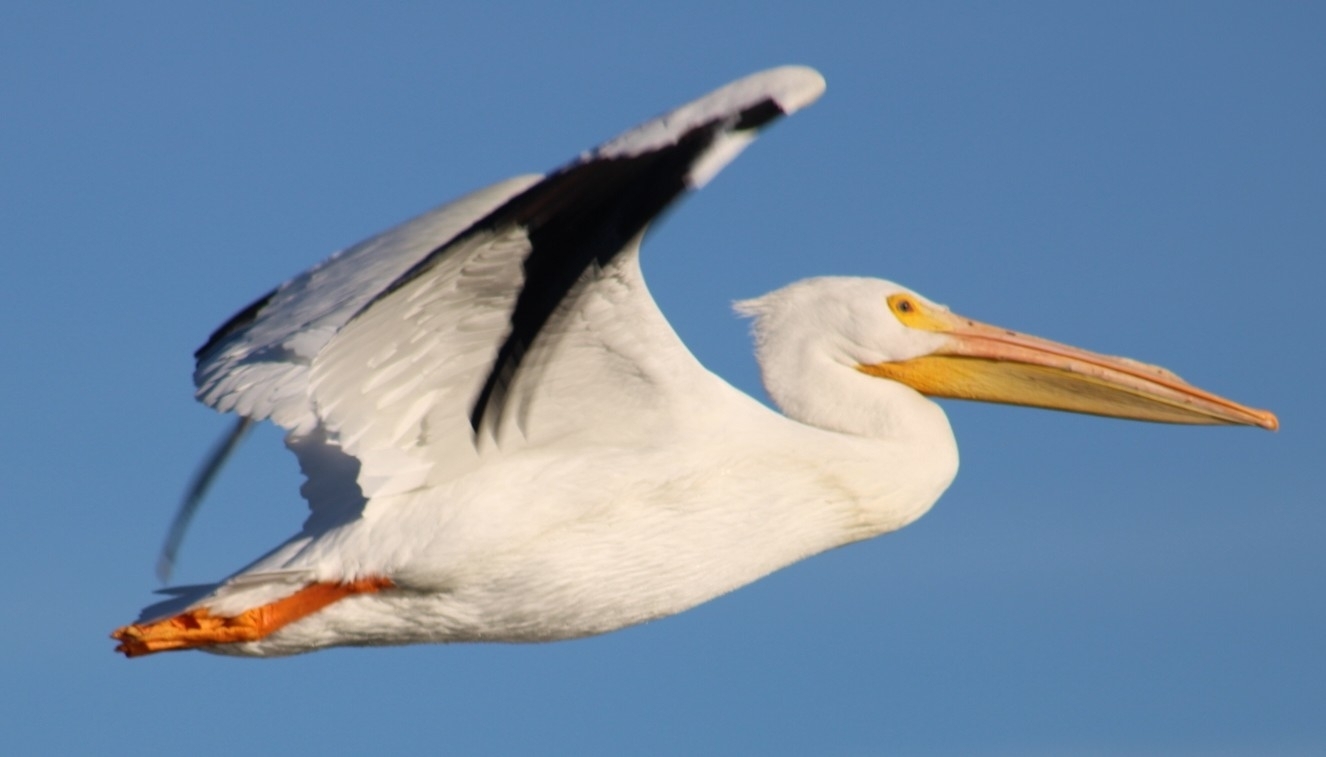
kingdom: Animalia
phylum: Chordata
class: Aves
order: Pelecaniformes
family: Pelecanidae
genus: Pelecanus
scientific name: Pelecanus erythrorhynchos
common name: American white pelican
